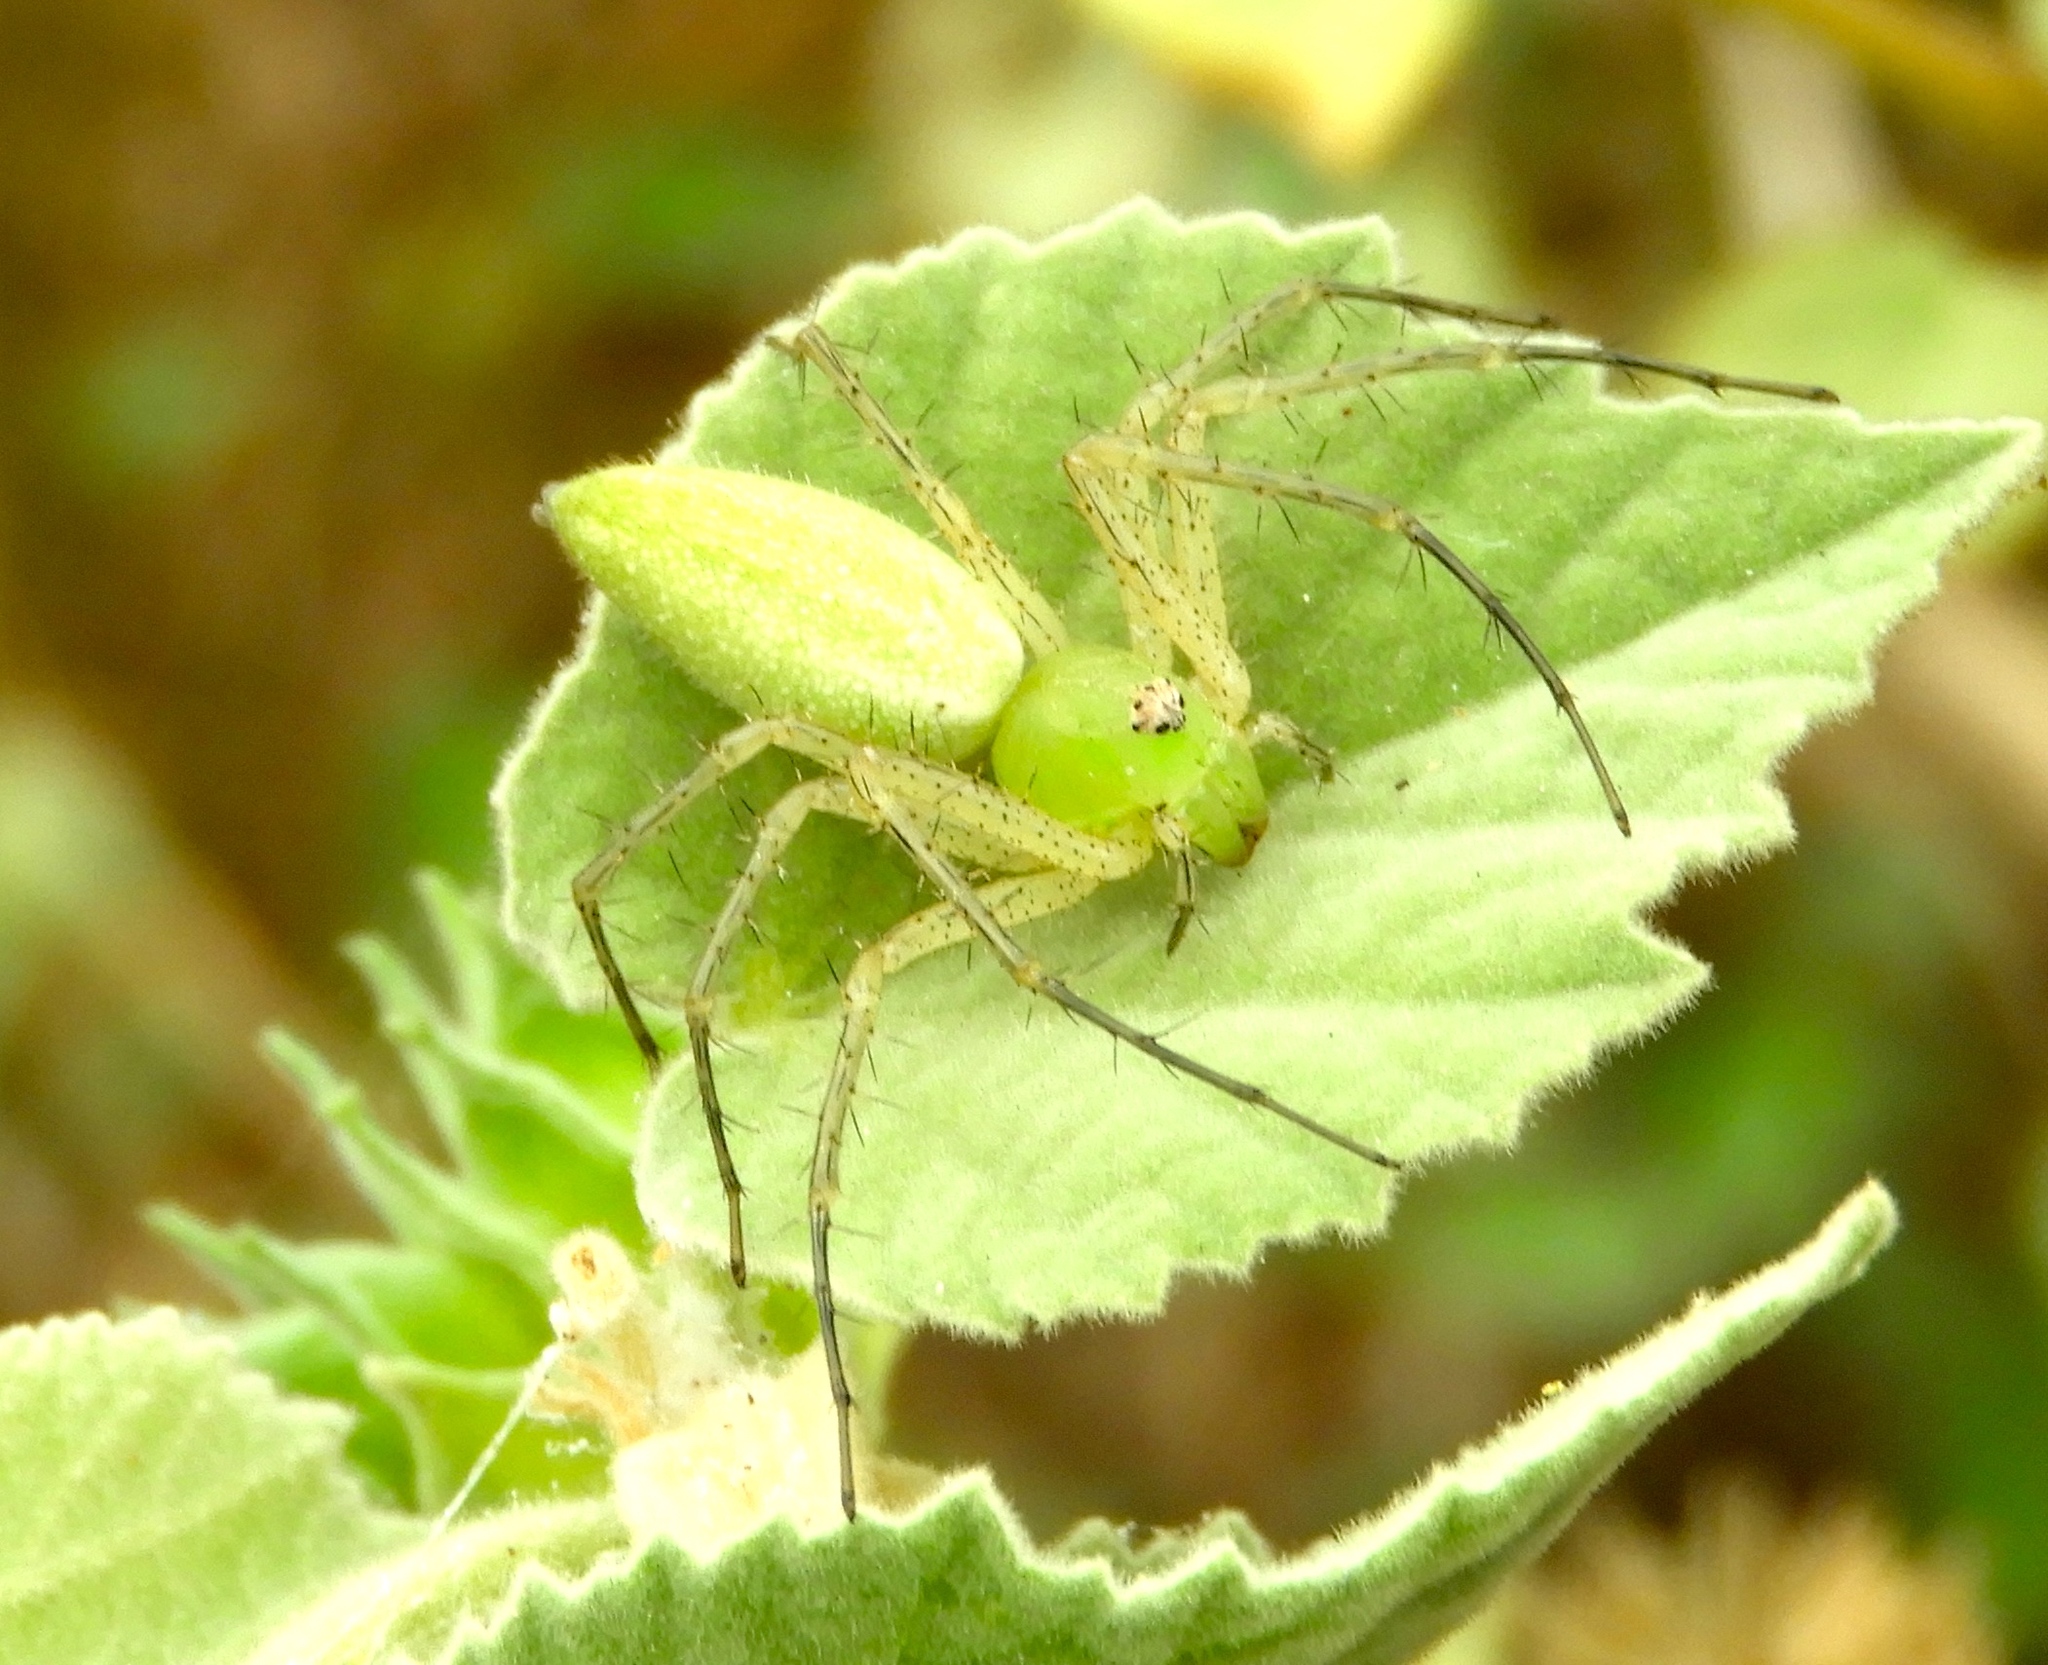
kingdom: Animalia
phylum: Arthropoda
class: Arachnida
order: Araneae
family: Oxyopidae
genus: Peucetia
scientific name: Peucetia
